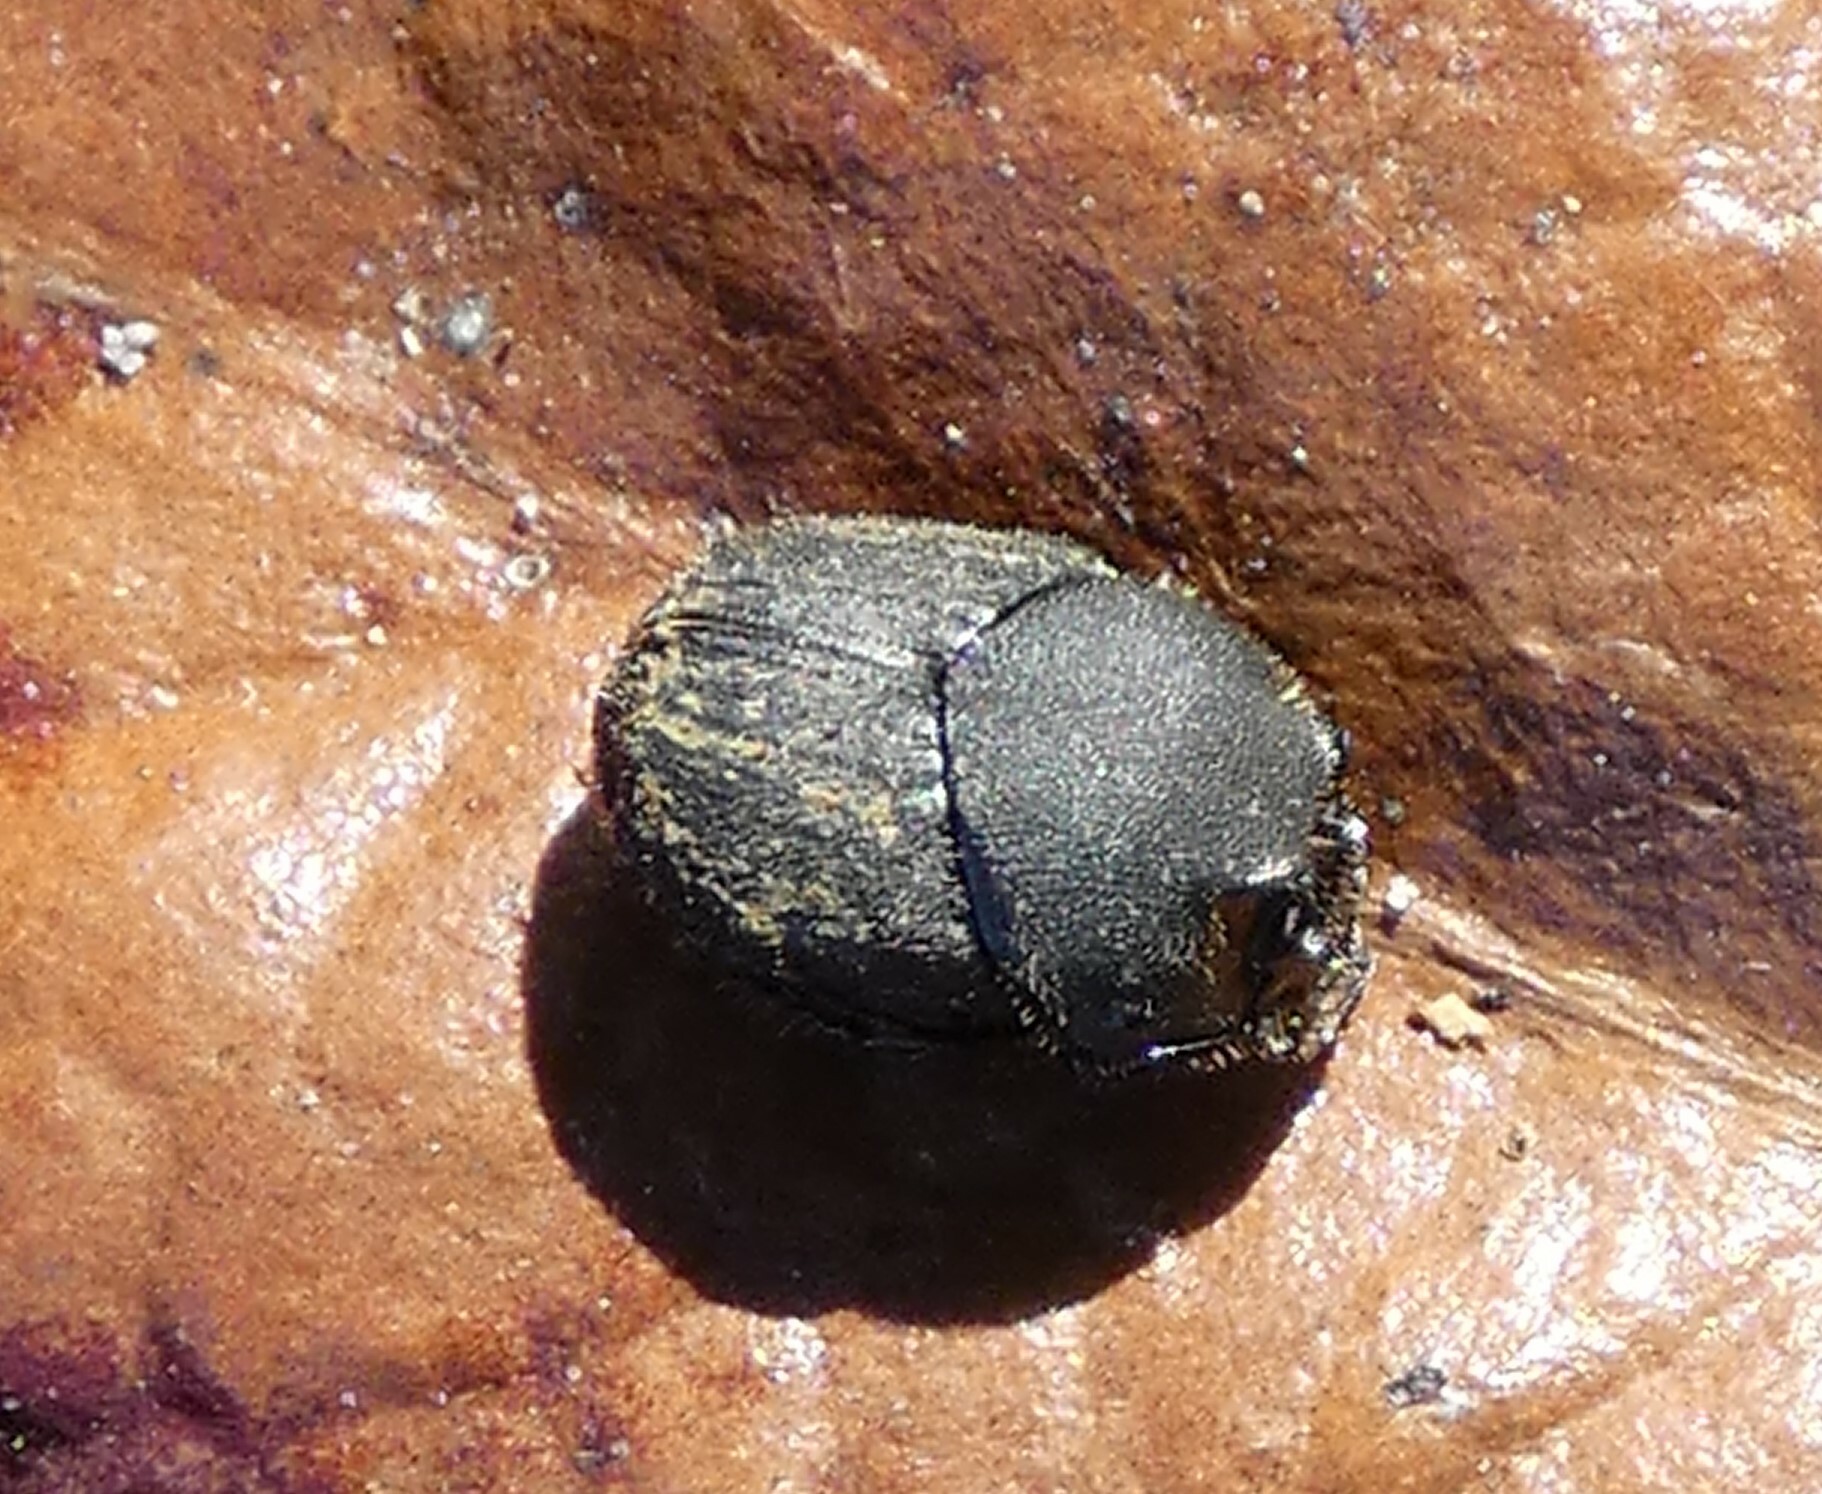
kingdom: Animalia
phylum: Arthropoda
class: Insecta
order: Coleoptera
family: Scarabaeidae
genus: Onthophagus
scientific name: Onthophagus hecate
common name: Scooped scarab
